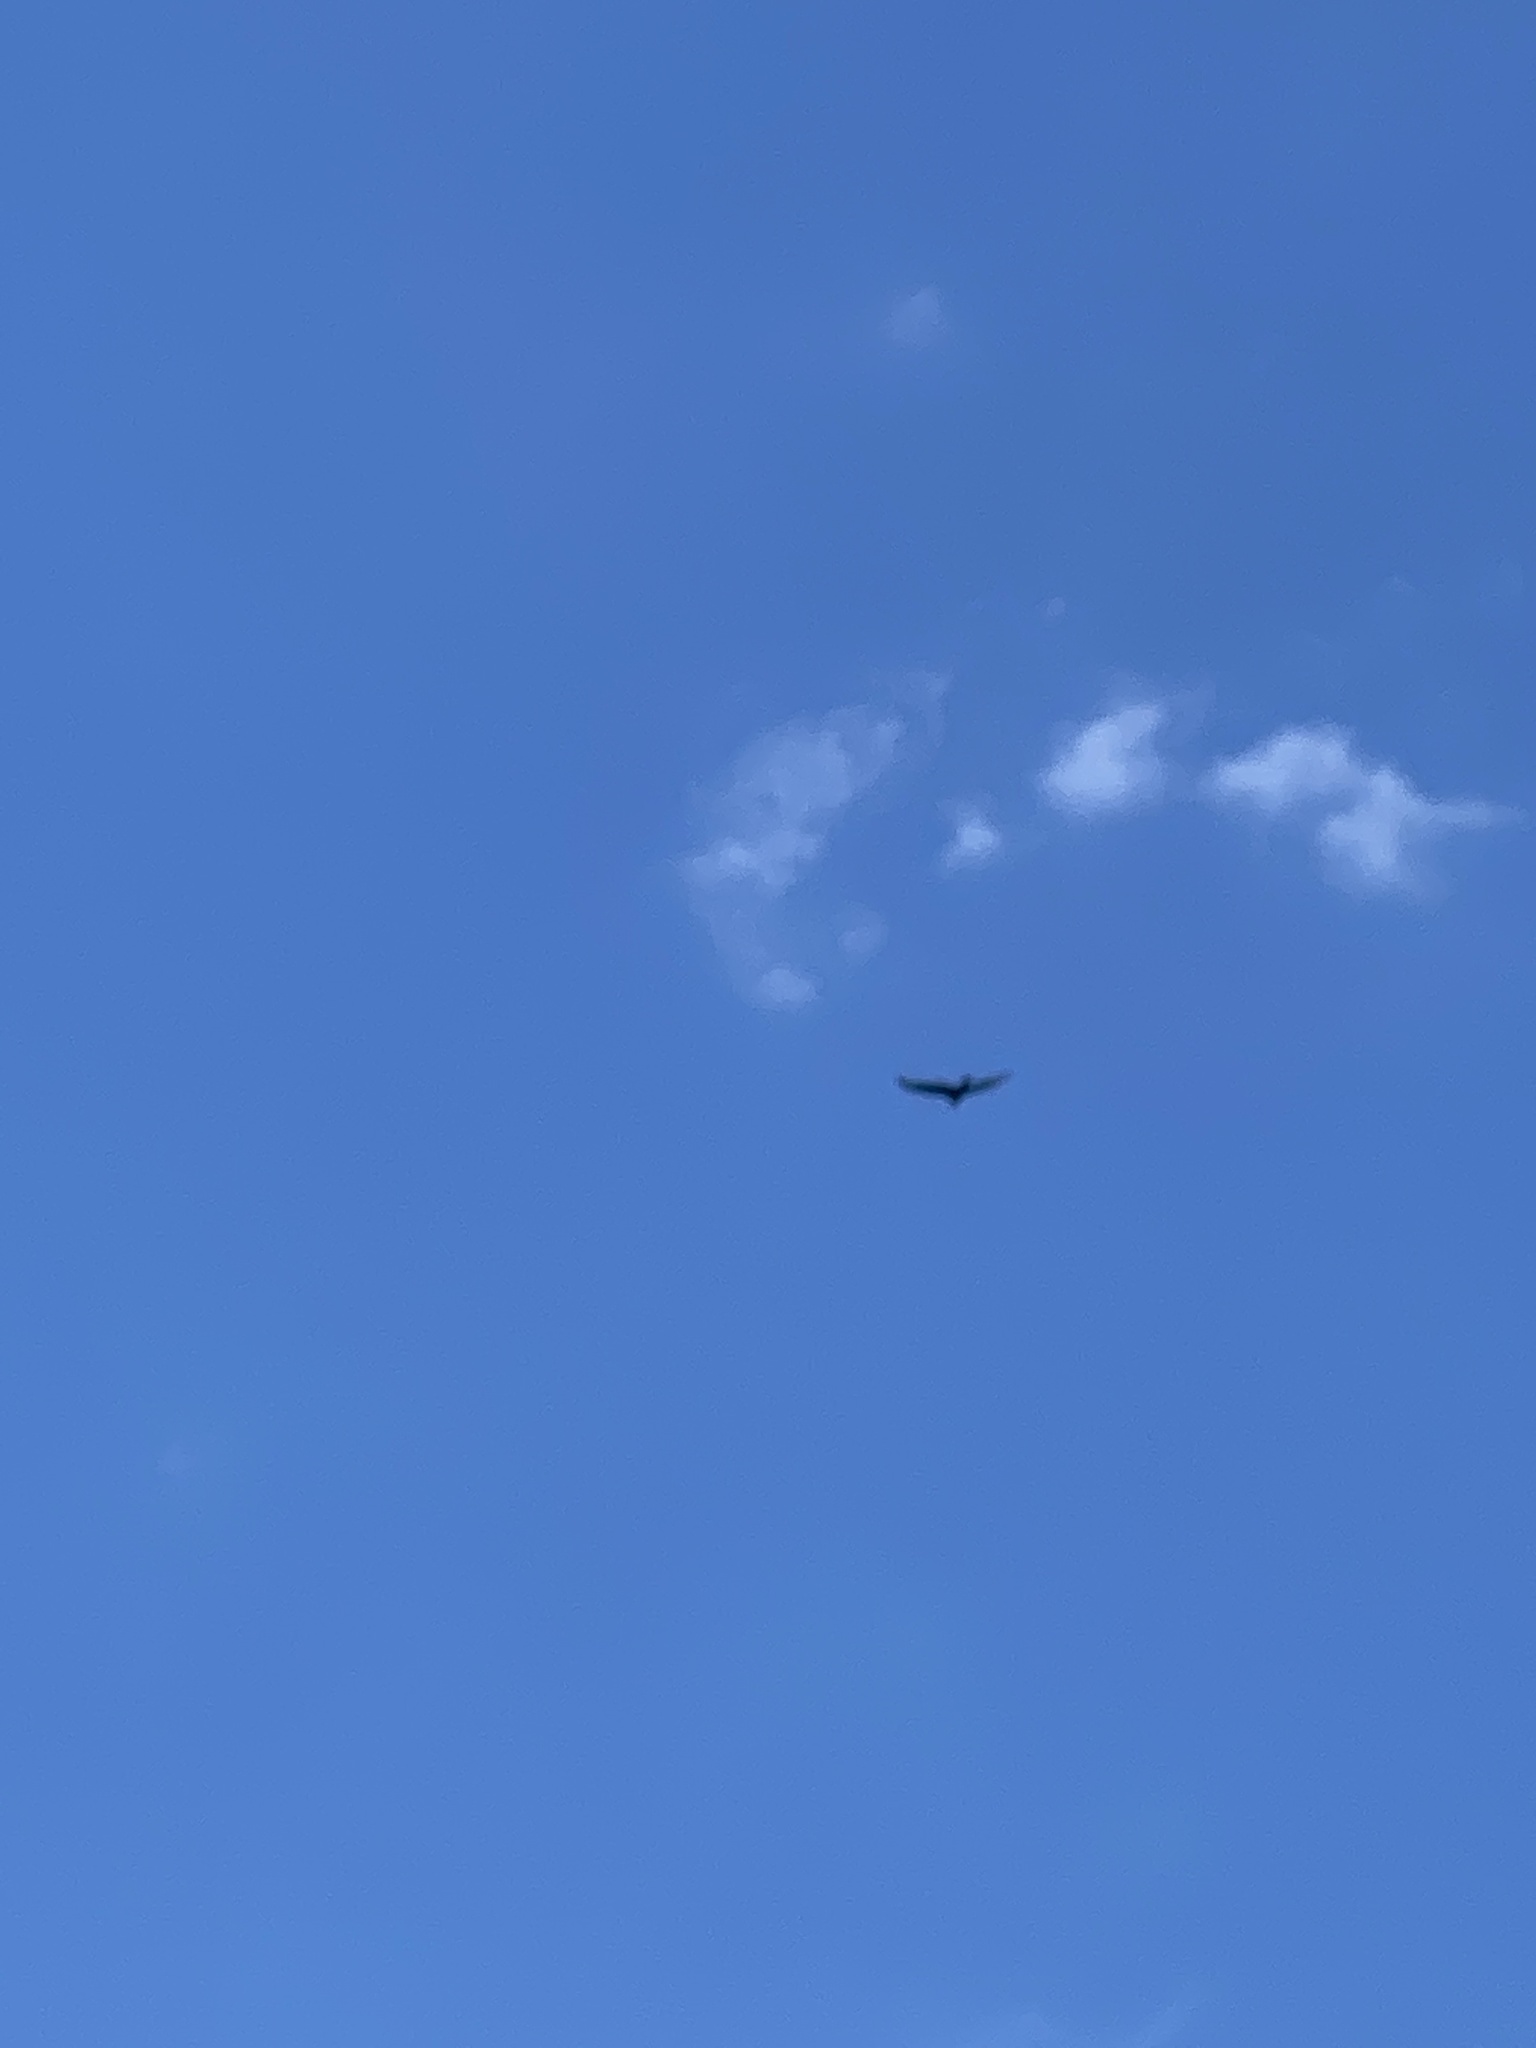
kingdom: Animalia
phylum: Chordata
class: Aves
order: Accipitriformes
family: Cathartidae
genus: Cathartes
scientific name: Cathartes aura
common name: Turkey vulture
